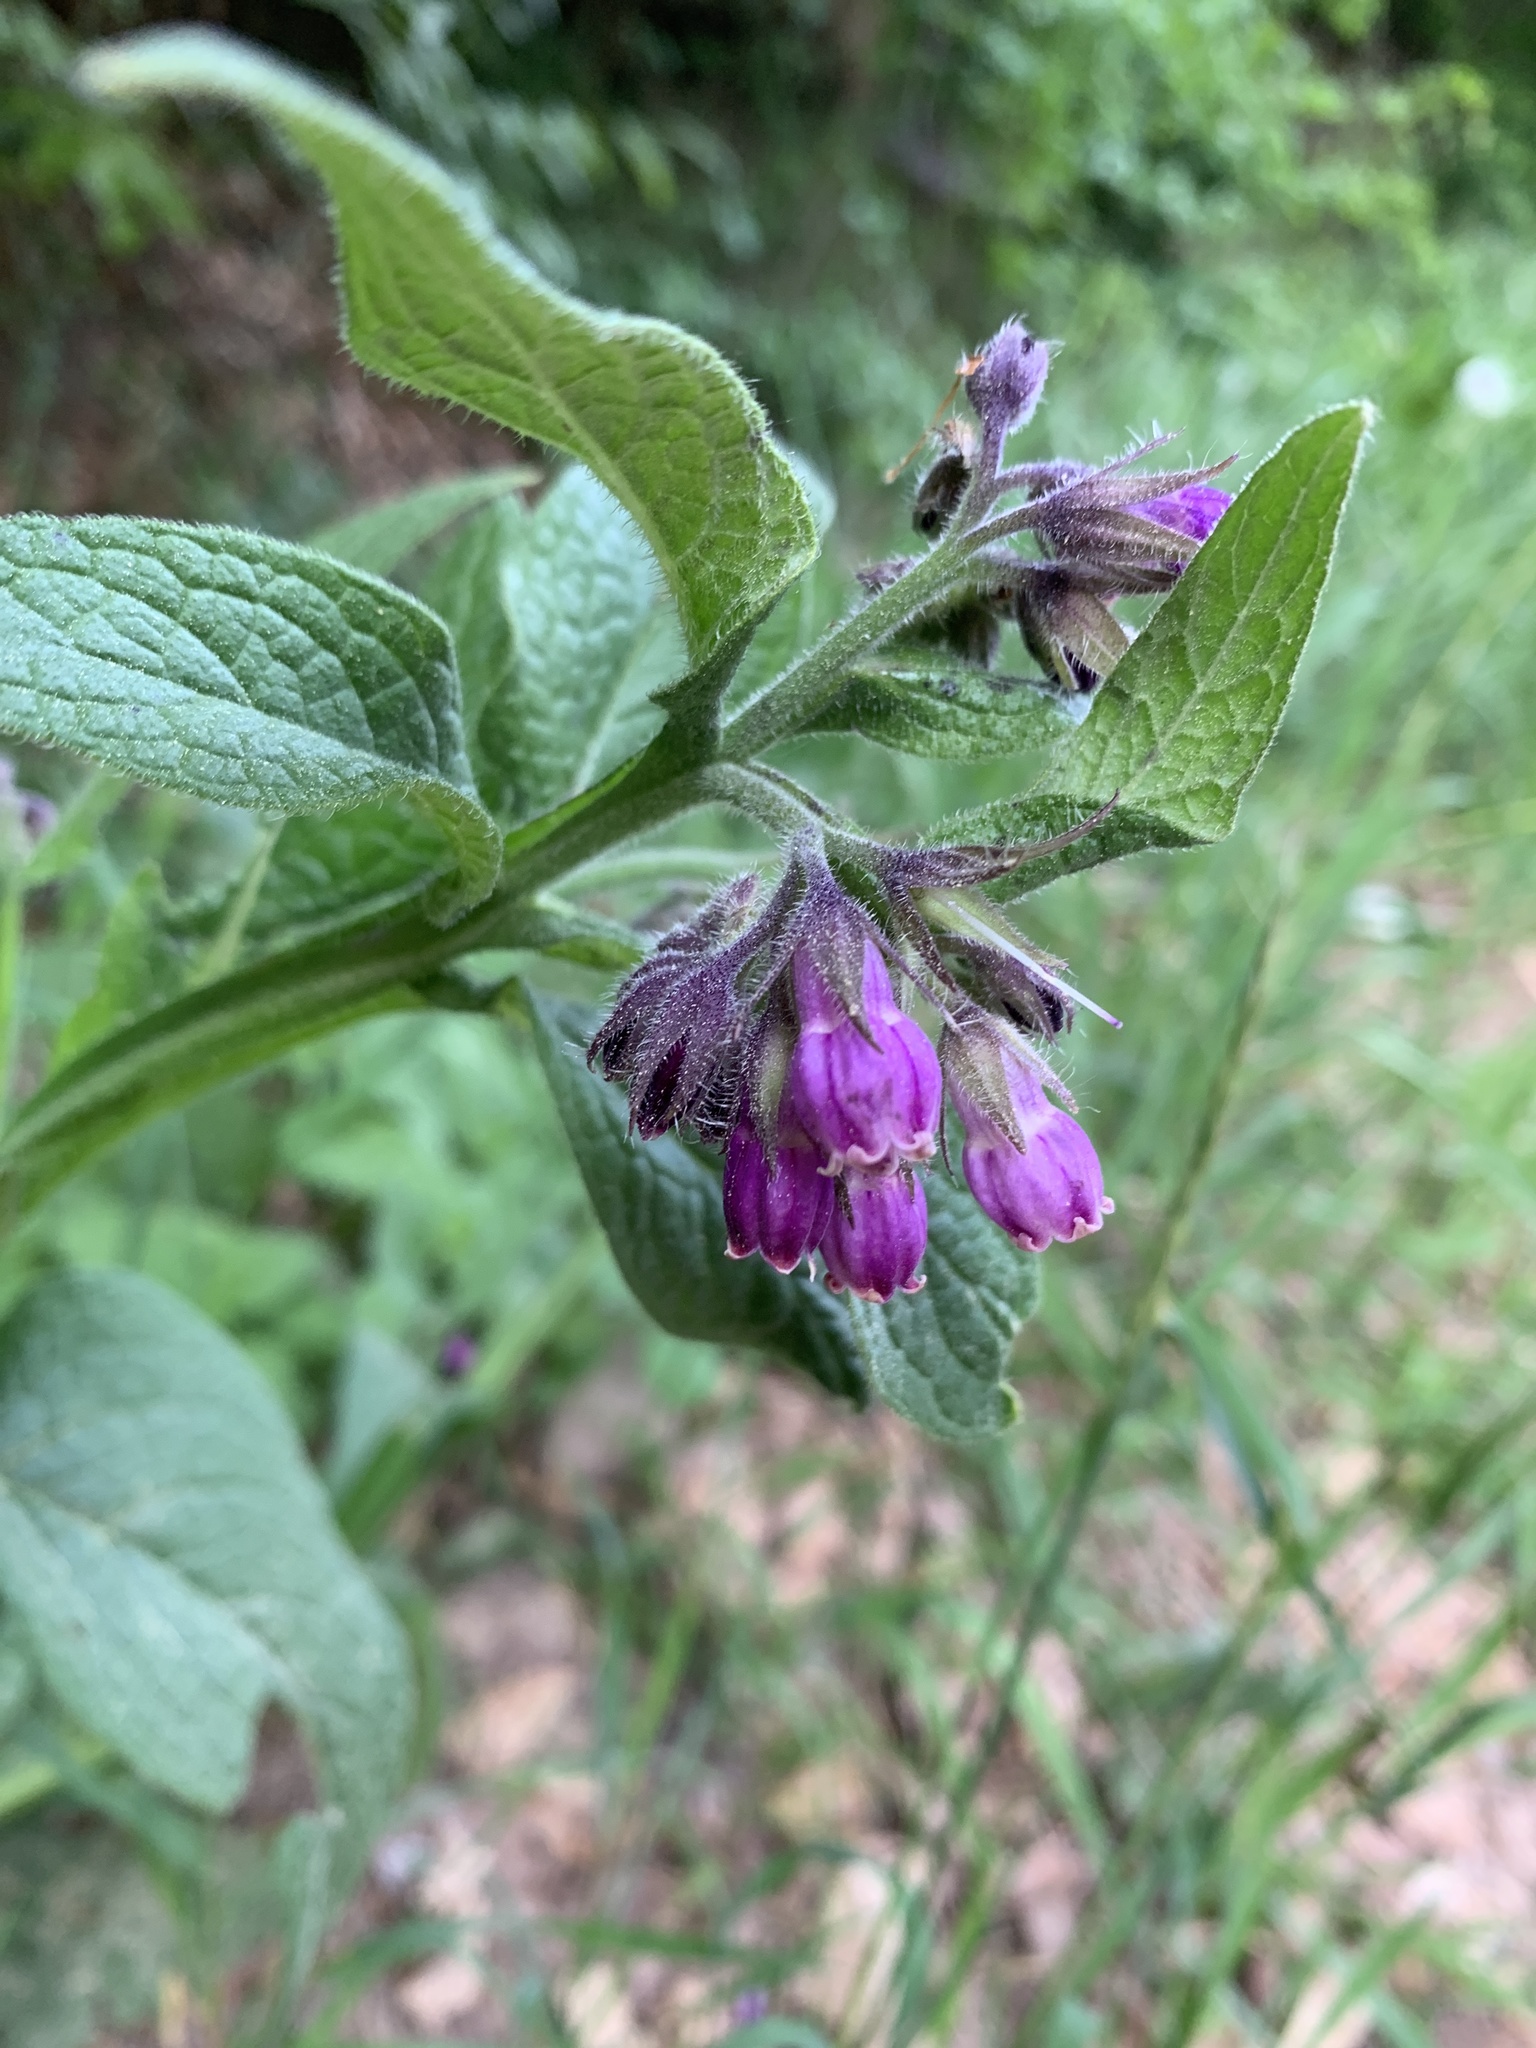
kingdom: Plantae
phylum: Tracheophyta
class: Magnoliopsida
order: Boraginales
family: Boraginaceae
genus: Symphytum
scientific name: Symphytum officinale
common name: Common comfrey
